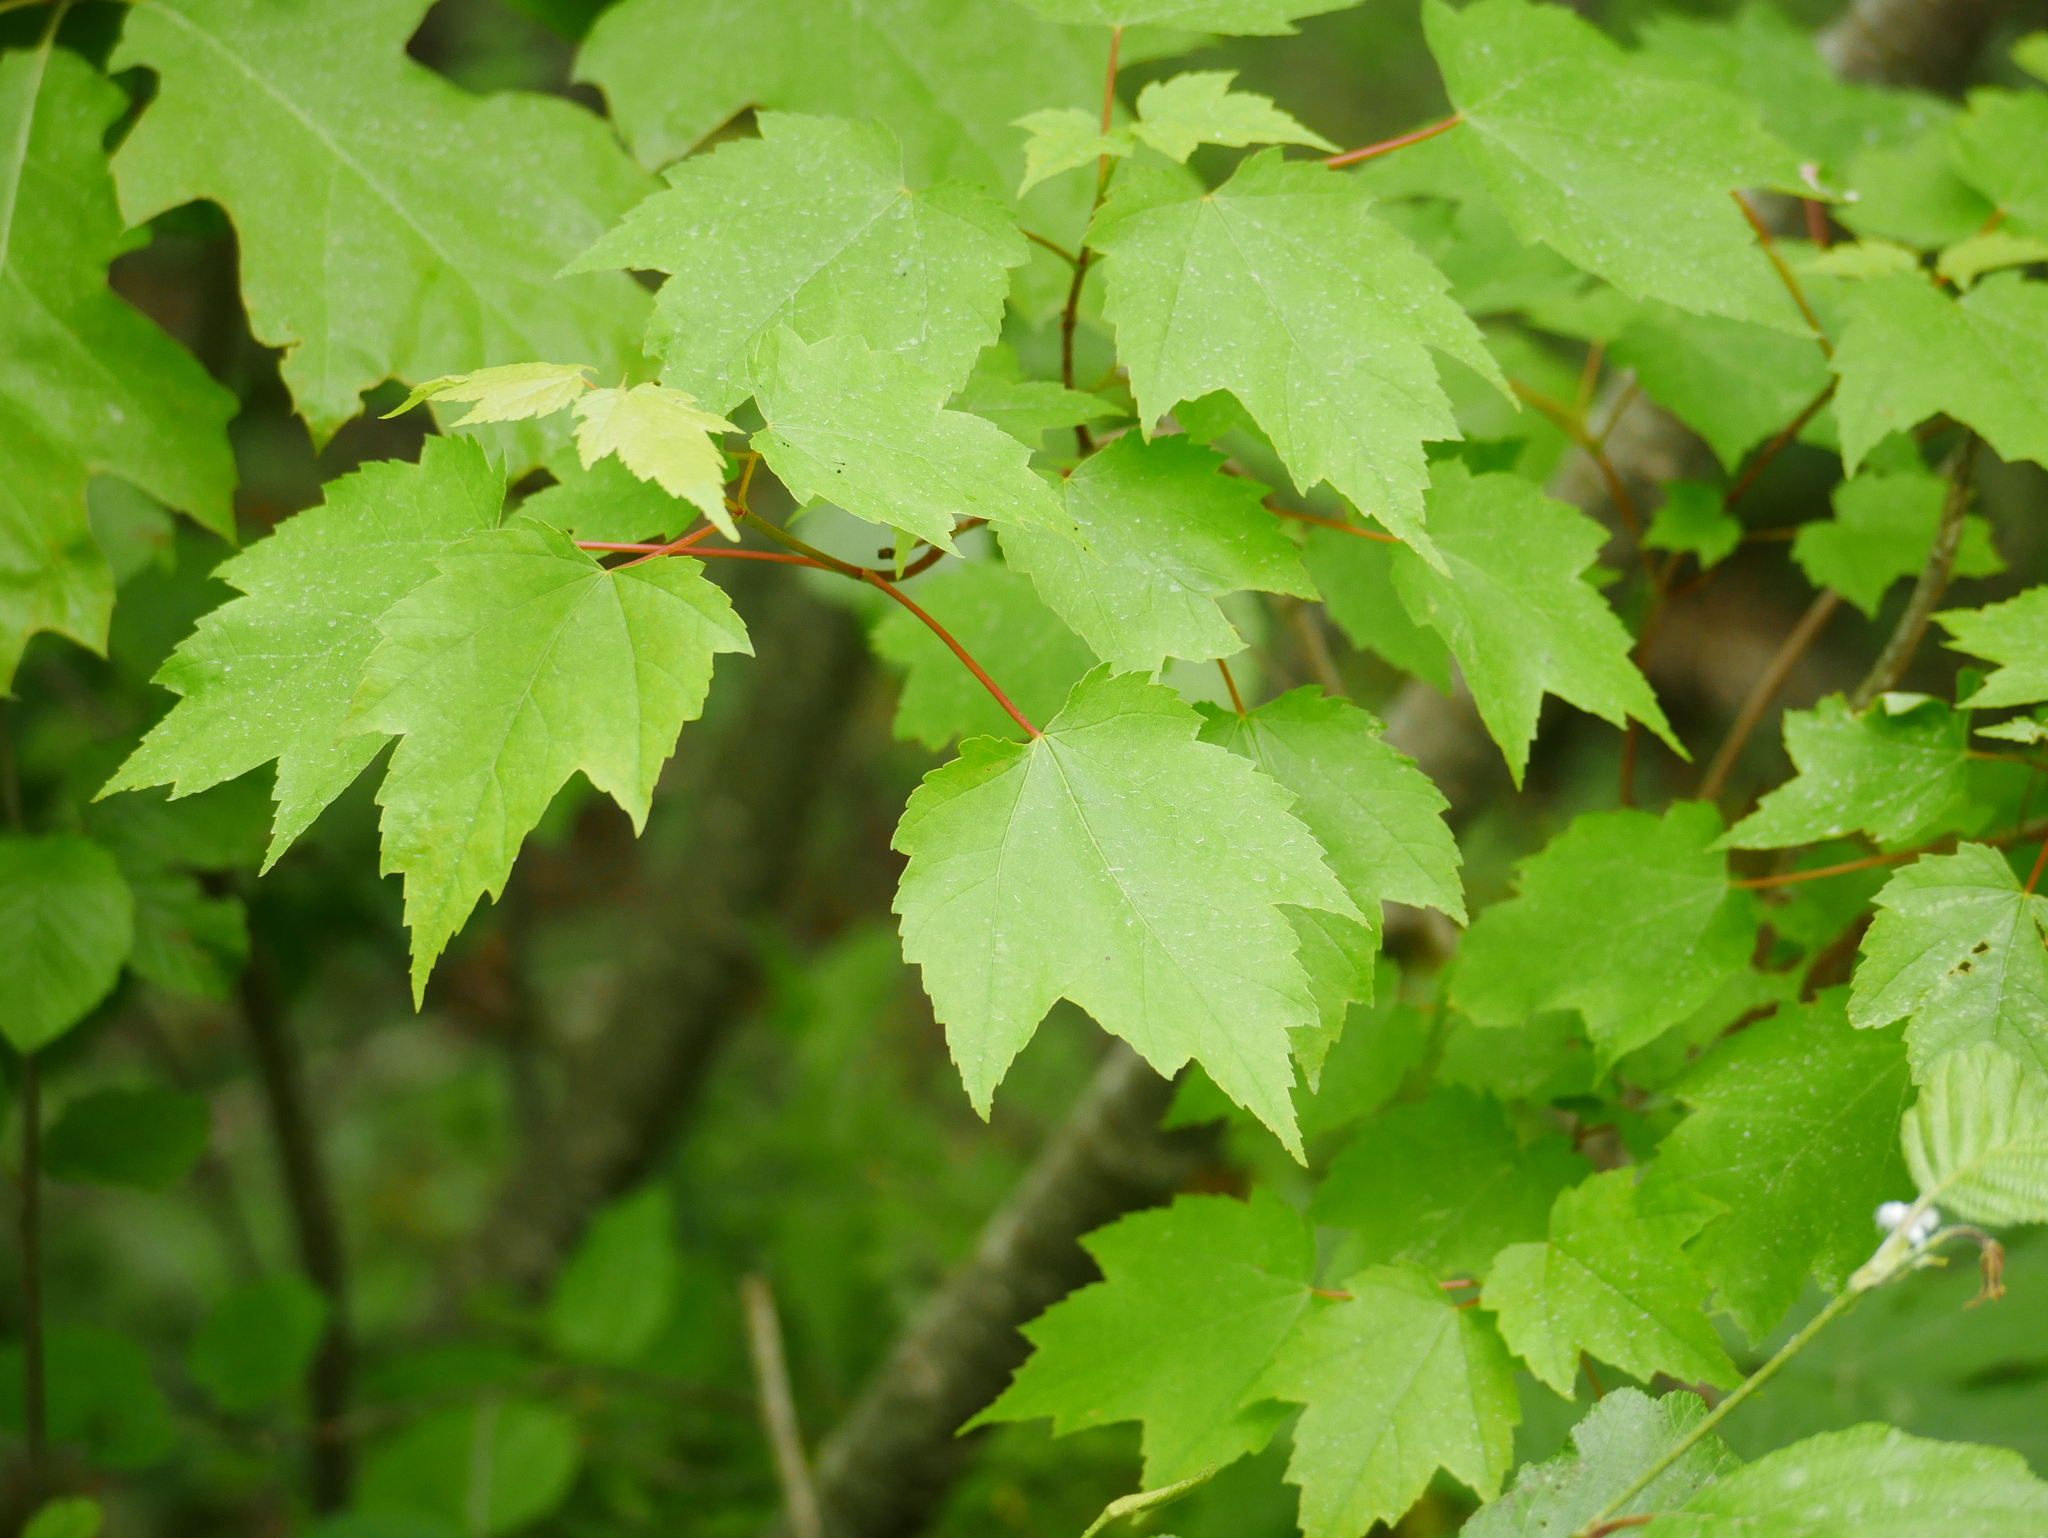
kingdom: Plantae
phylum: Tracheophyta
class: Magnoliopsida
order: Sapindales
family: Sapindaceae
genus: Acer
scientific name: Acer rubrum
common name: Red maple
